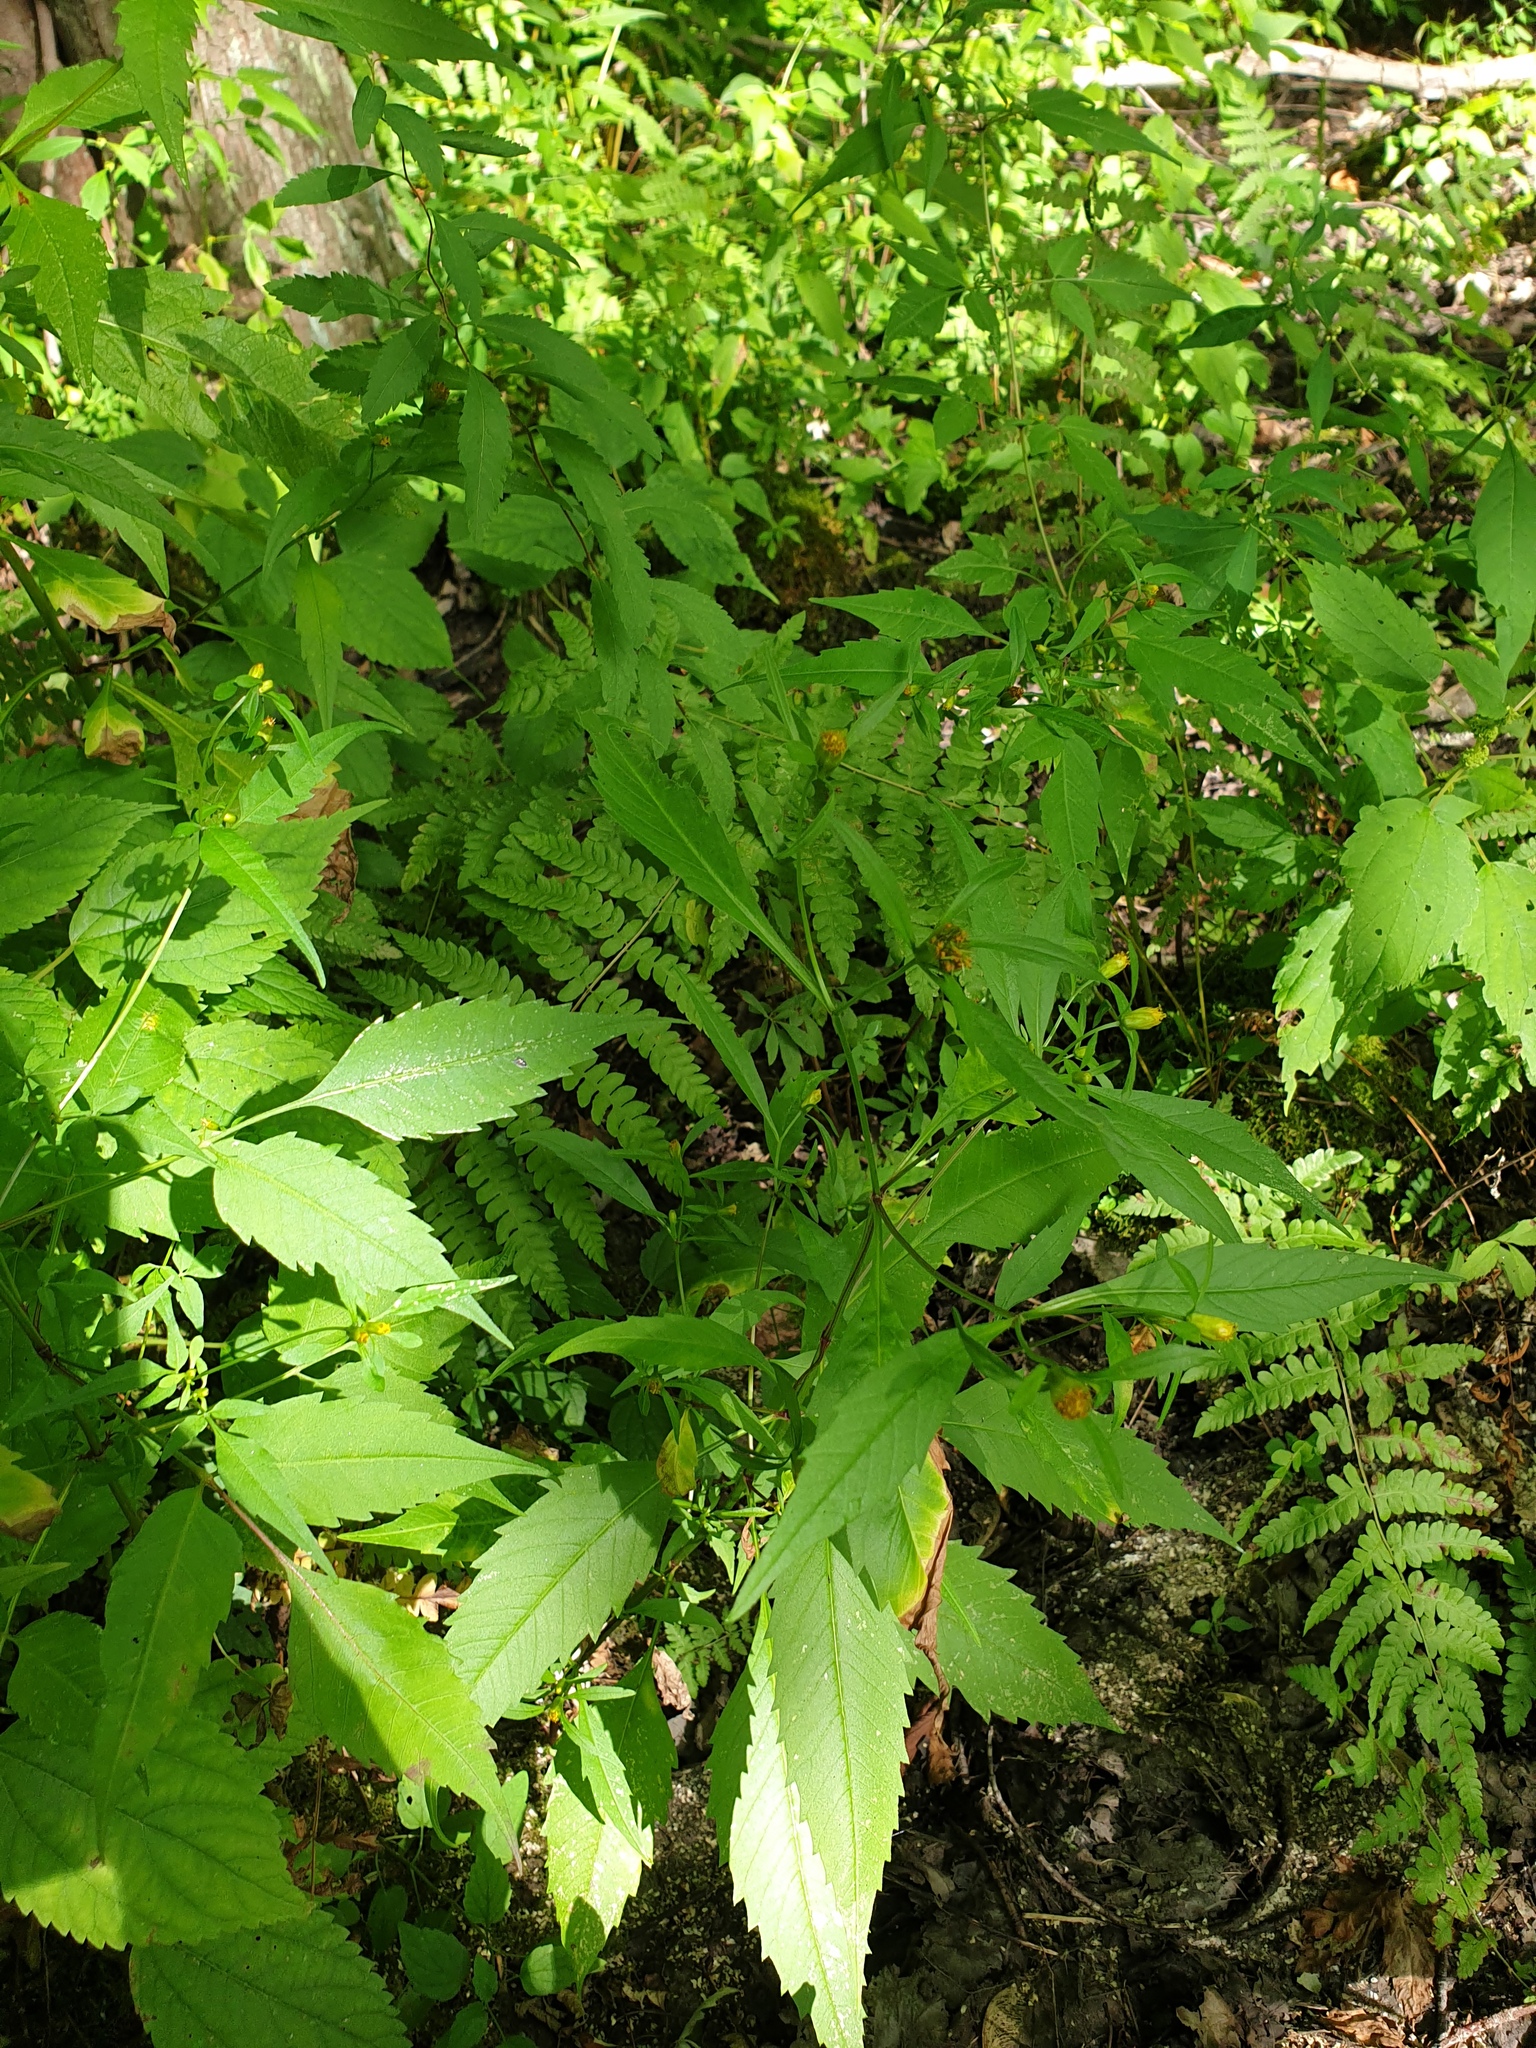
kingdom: Plantae
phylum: Tracheophyta
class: Magnoliopsida
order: Asterales
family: Asteraceae
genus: Bidens
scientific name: Bidens connata
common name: London bur-marigold
